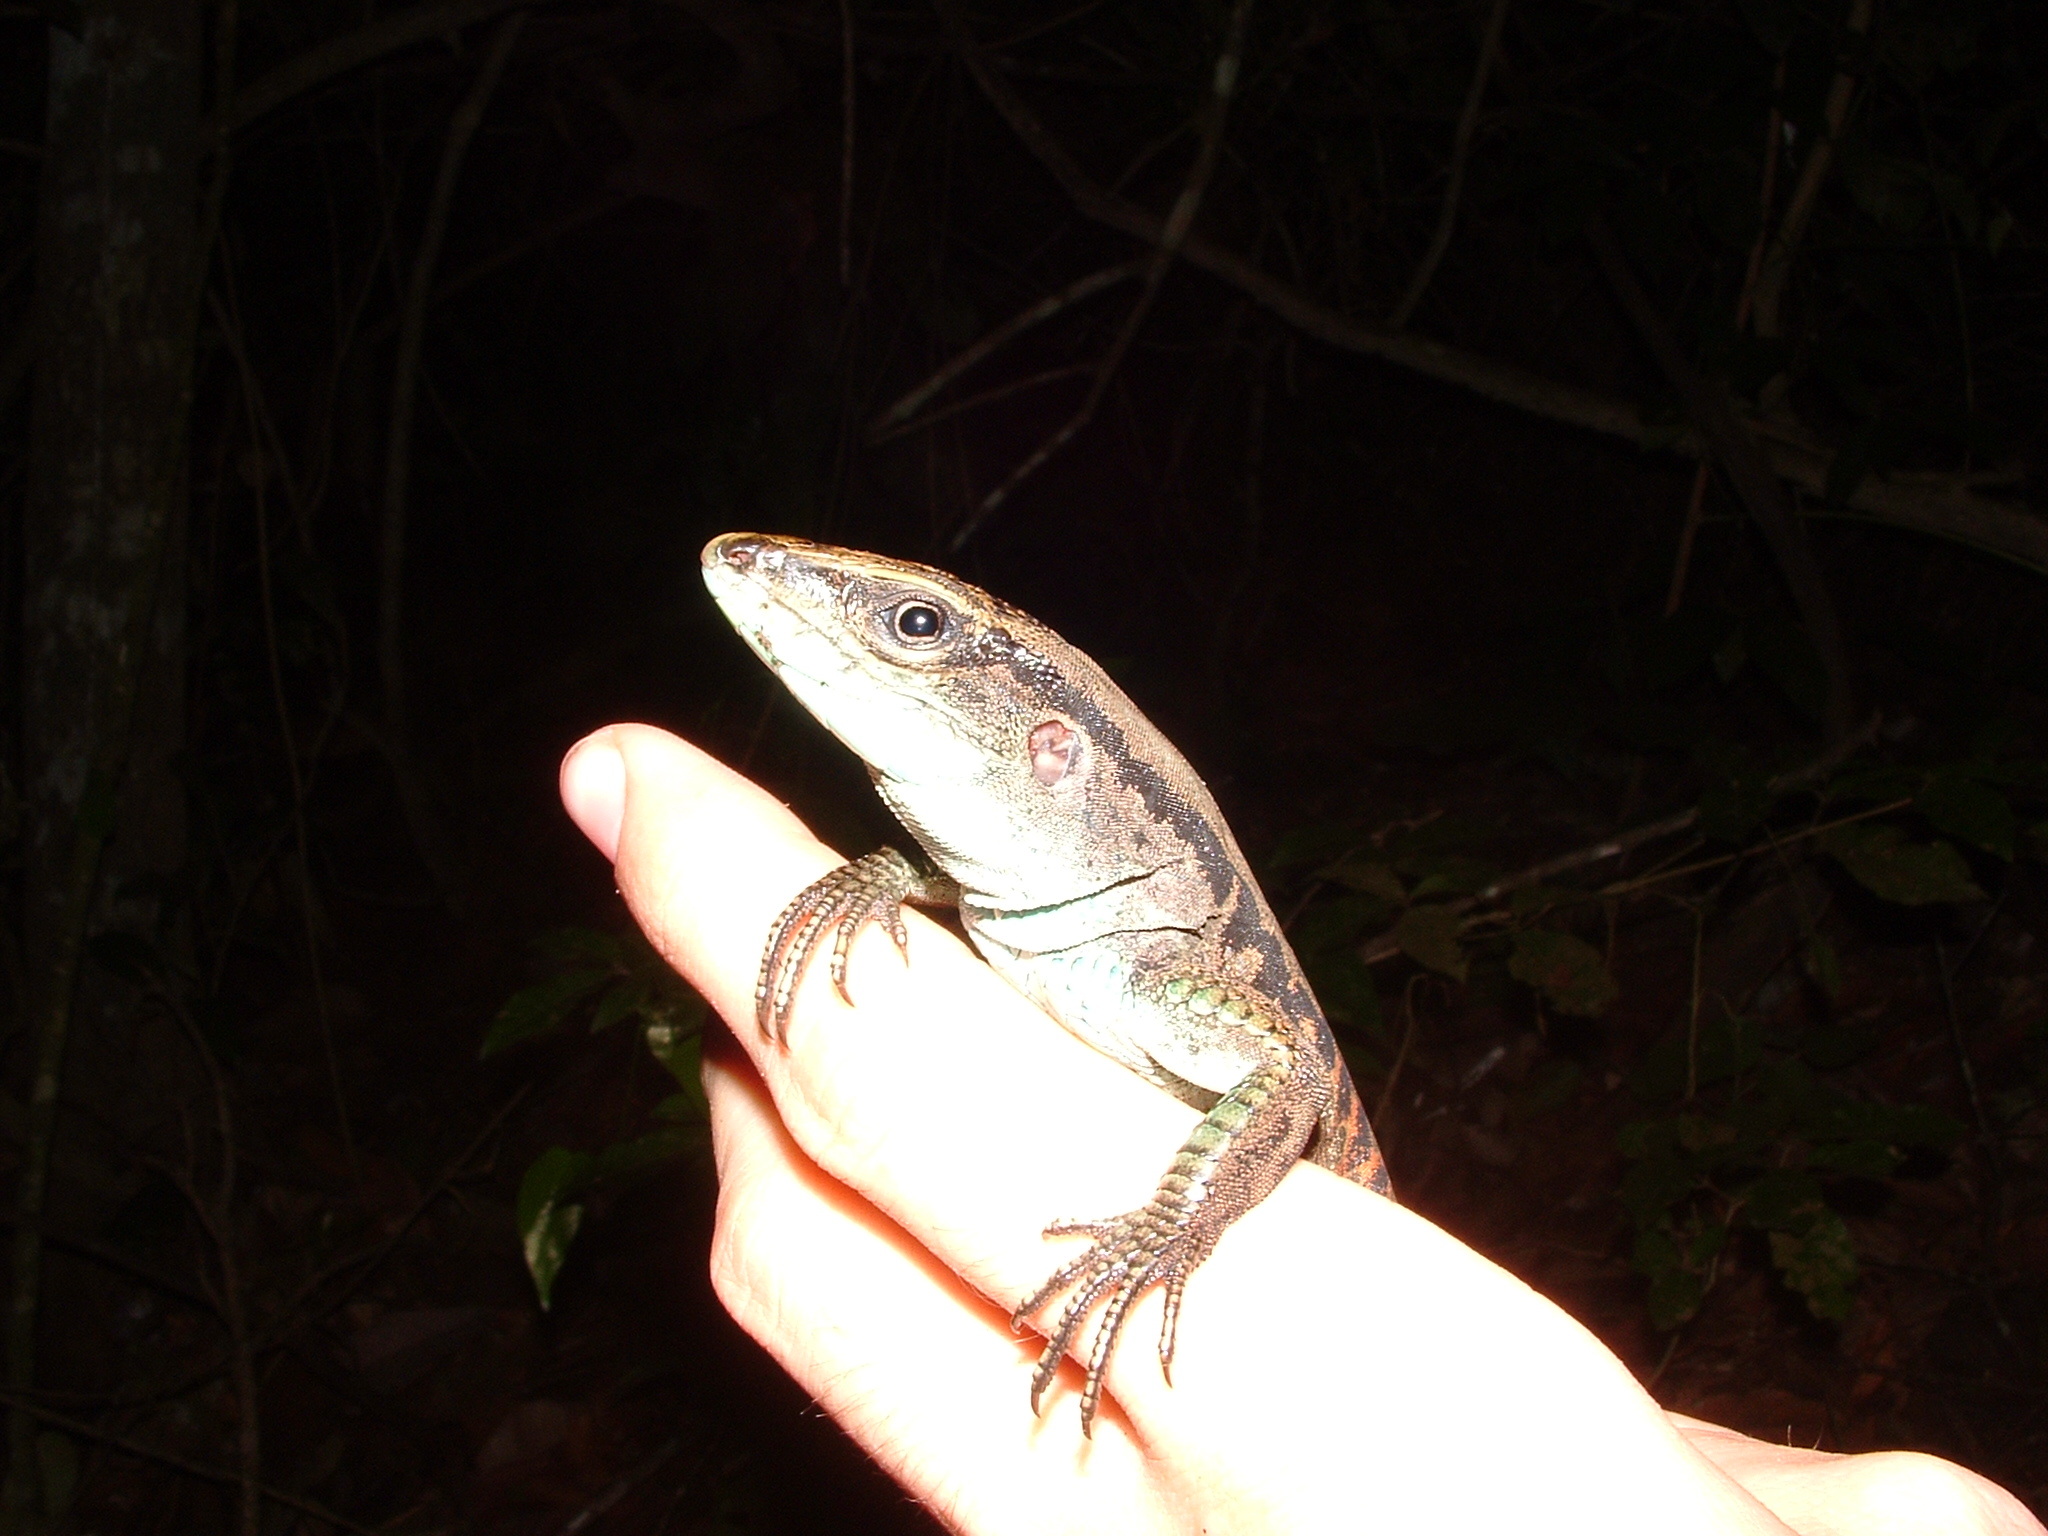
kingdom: Animalia
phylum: Chordata
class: Squamata
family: Teiidae
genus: Kentropyx
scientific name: Kentropyx pelviceps
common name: Forest whiptail
